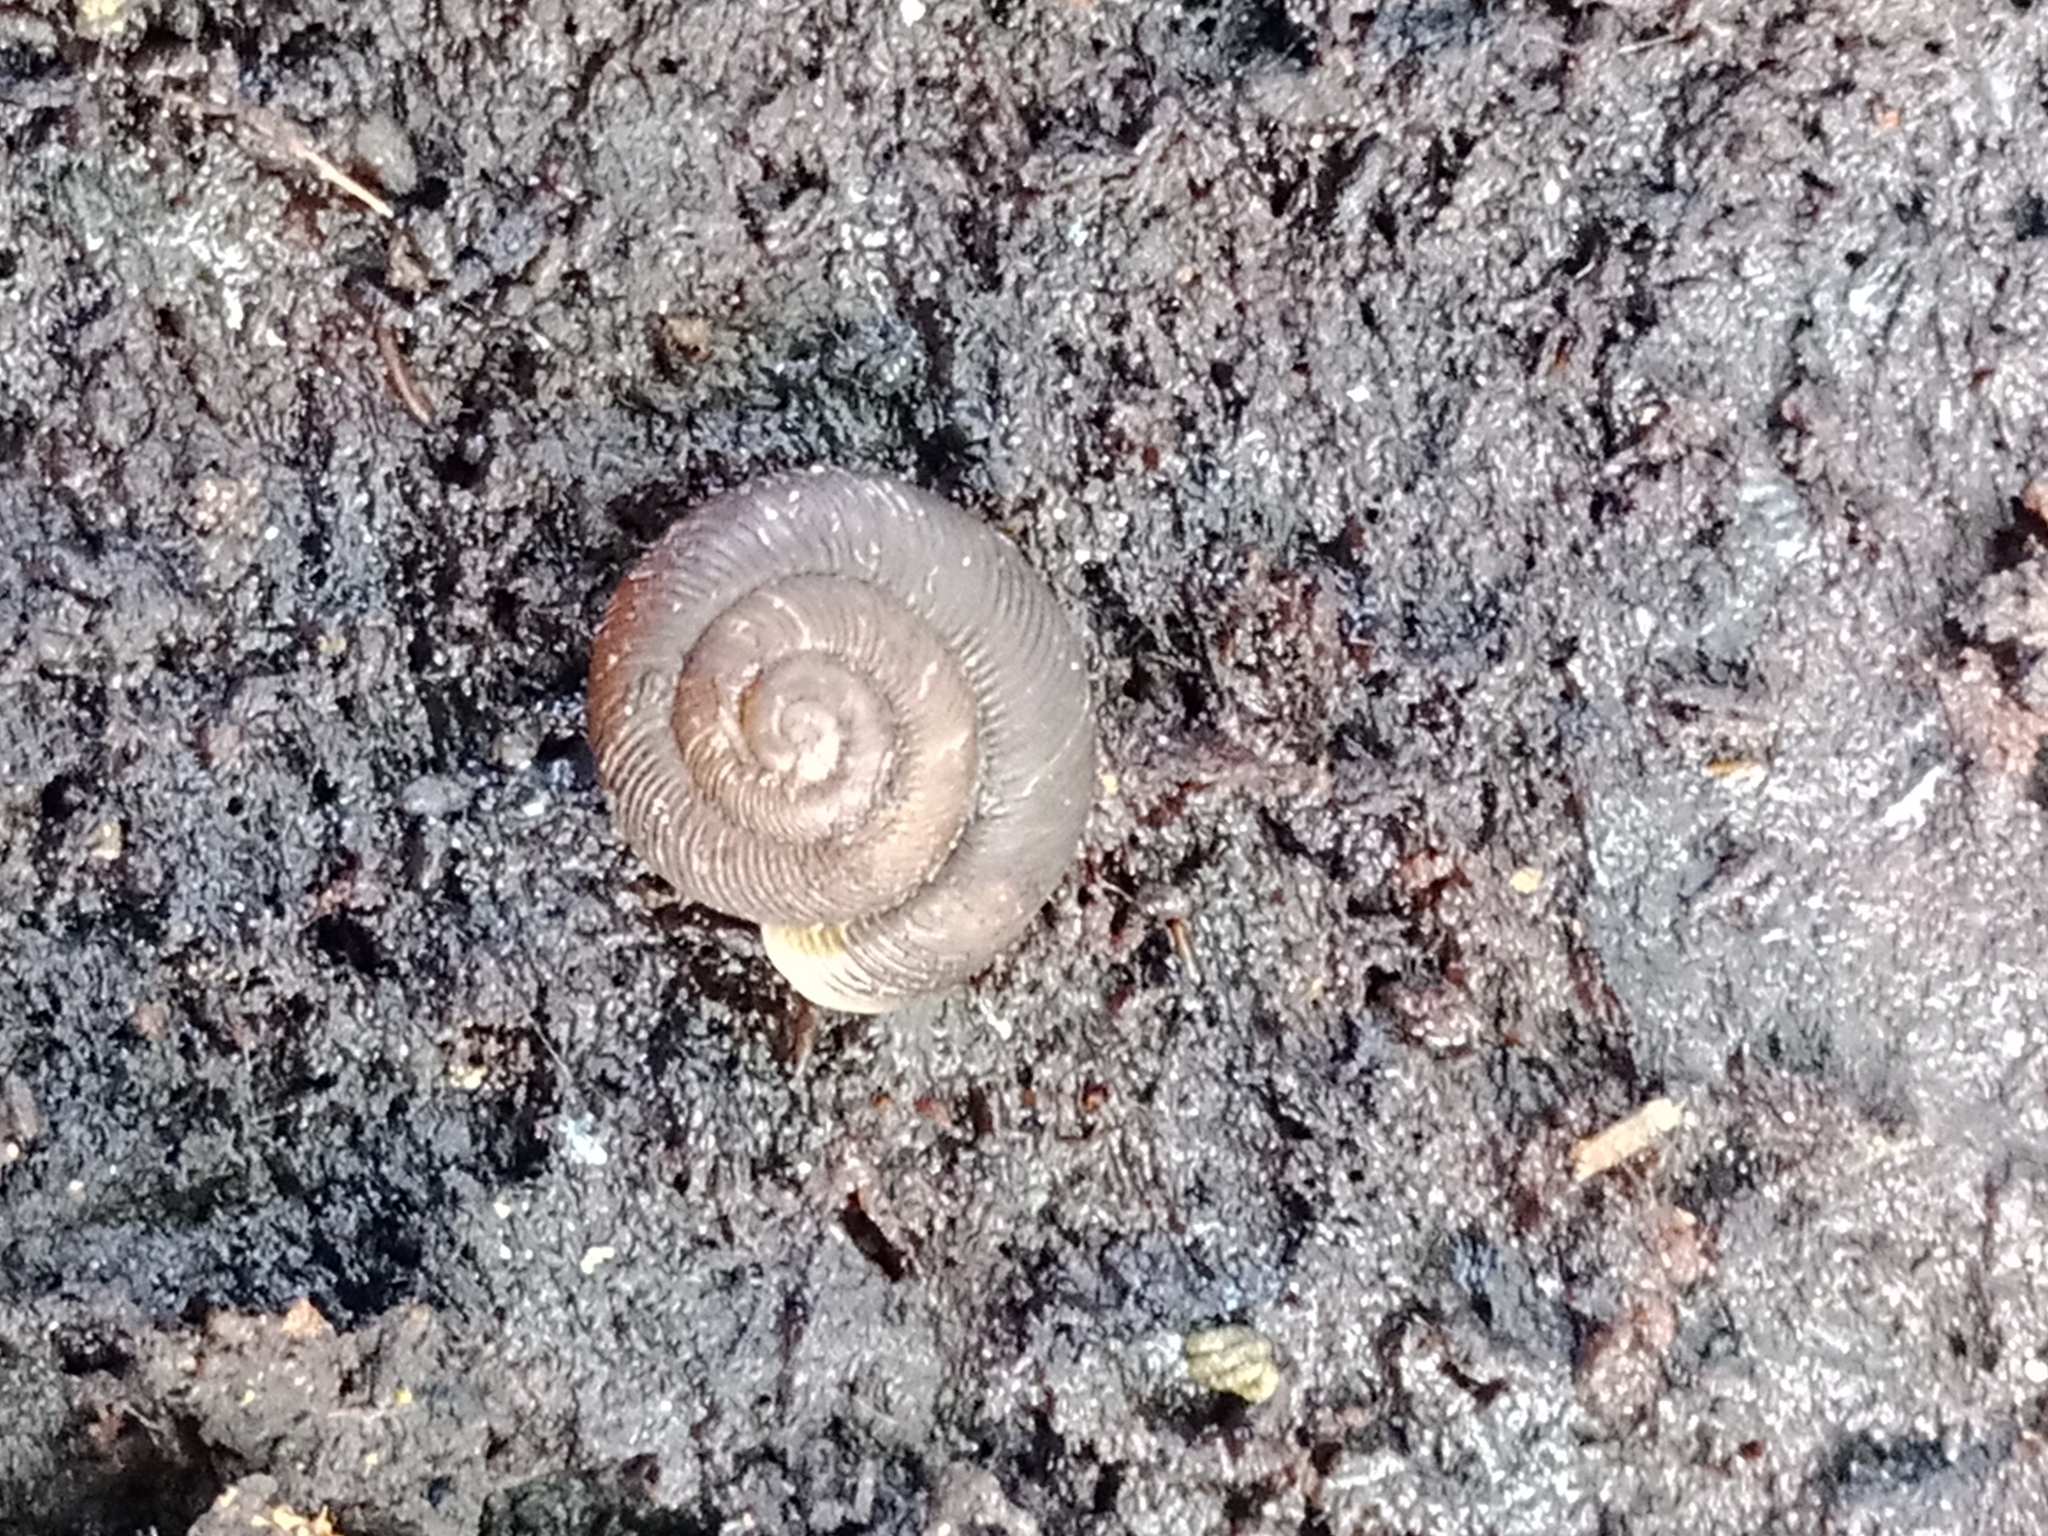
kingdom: Animalia
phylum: Mollusca
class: Gastropoda
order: Stylommatophora
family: Discidae
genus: Discus
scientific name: Discus ruderatus
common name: Brown disc snail
